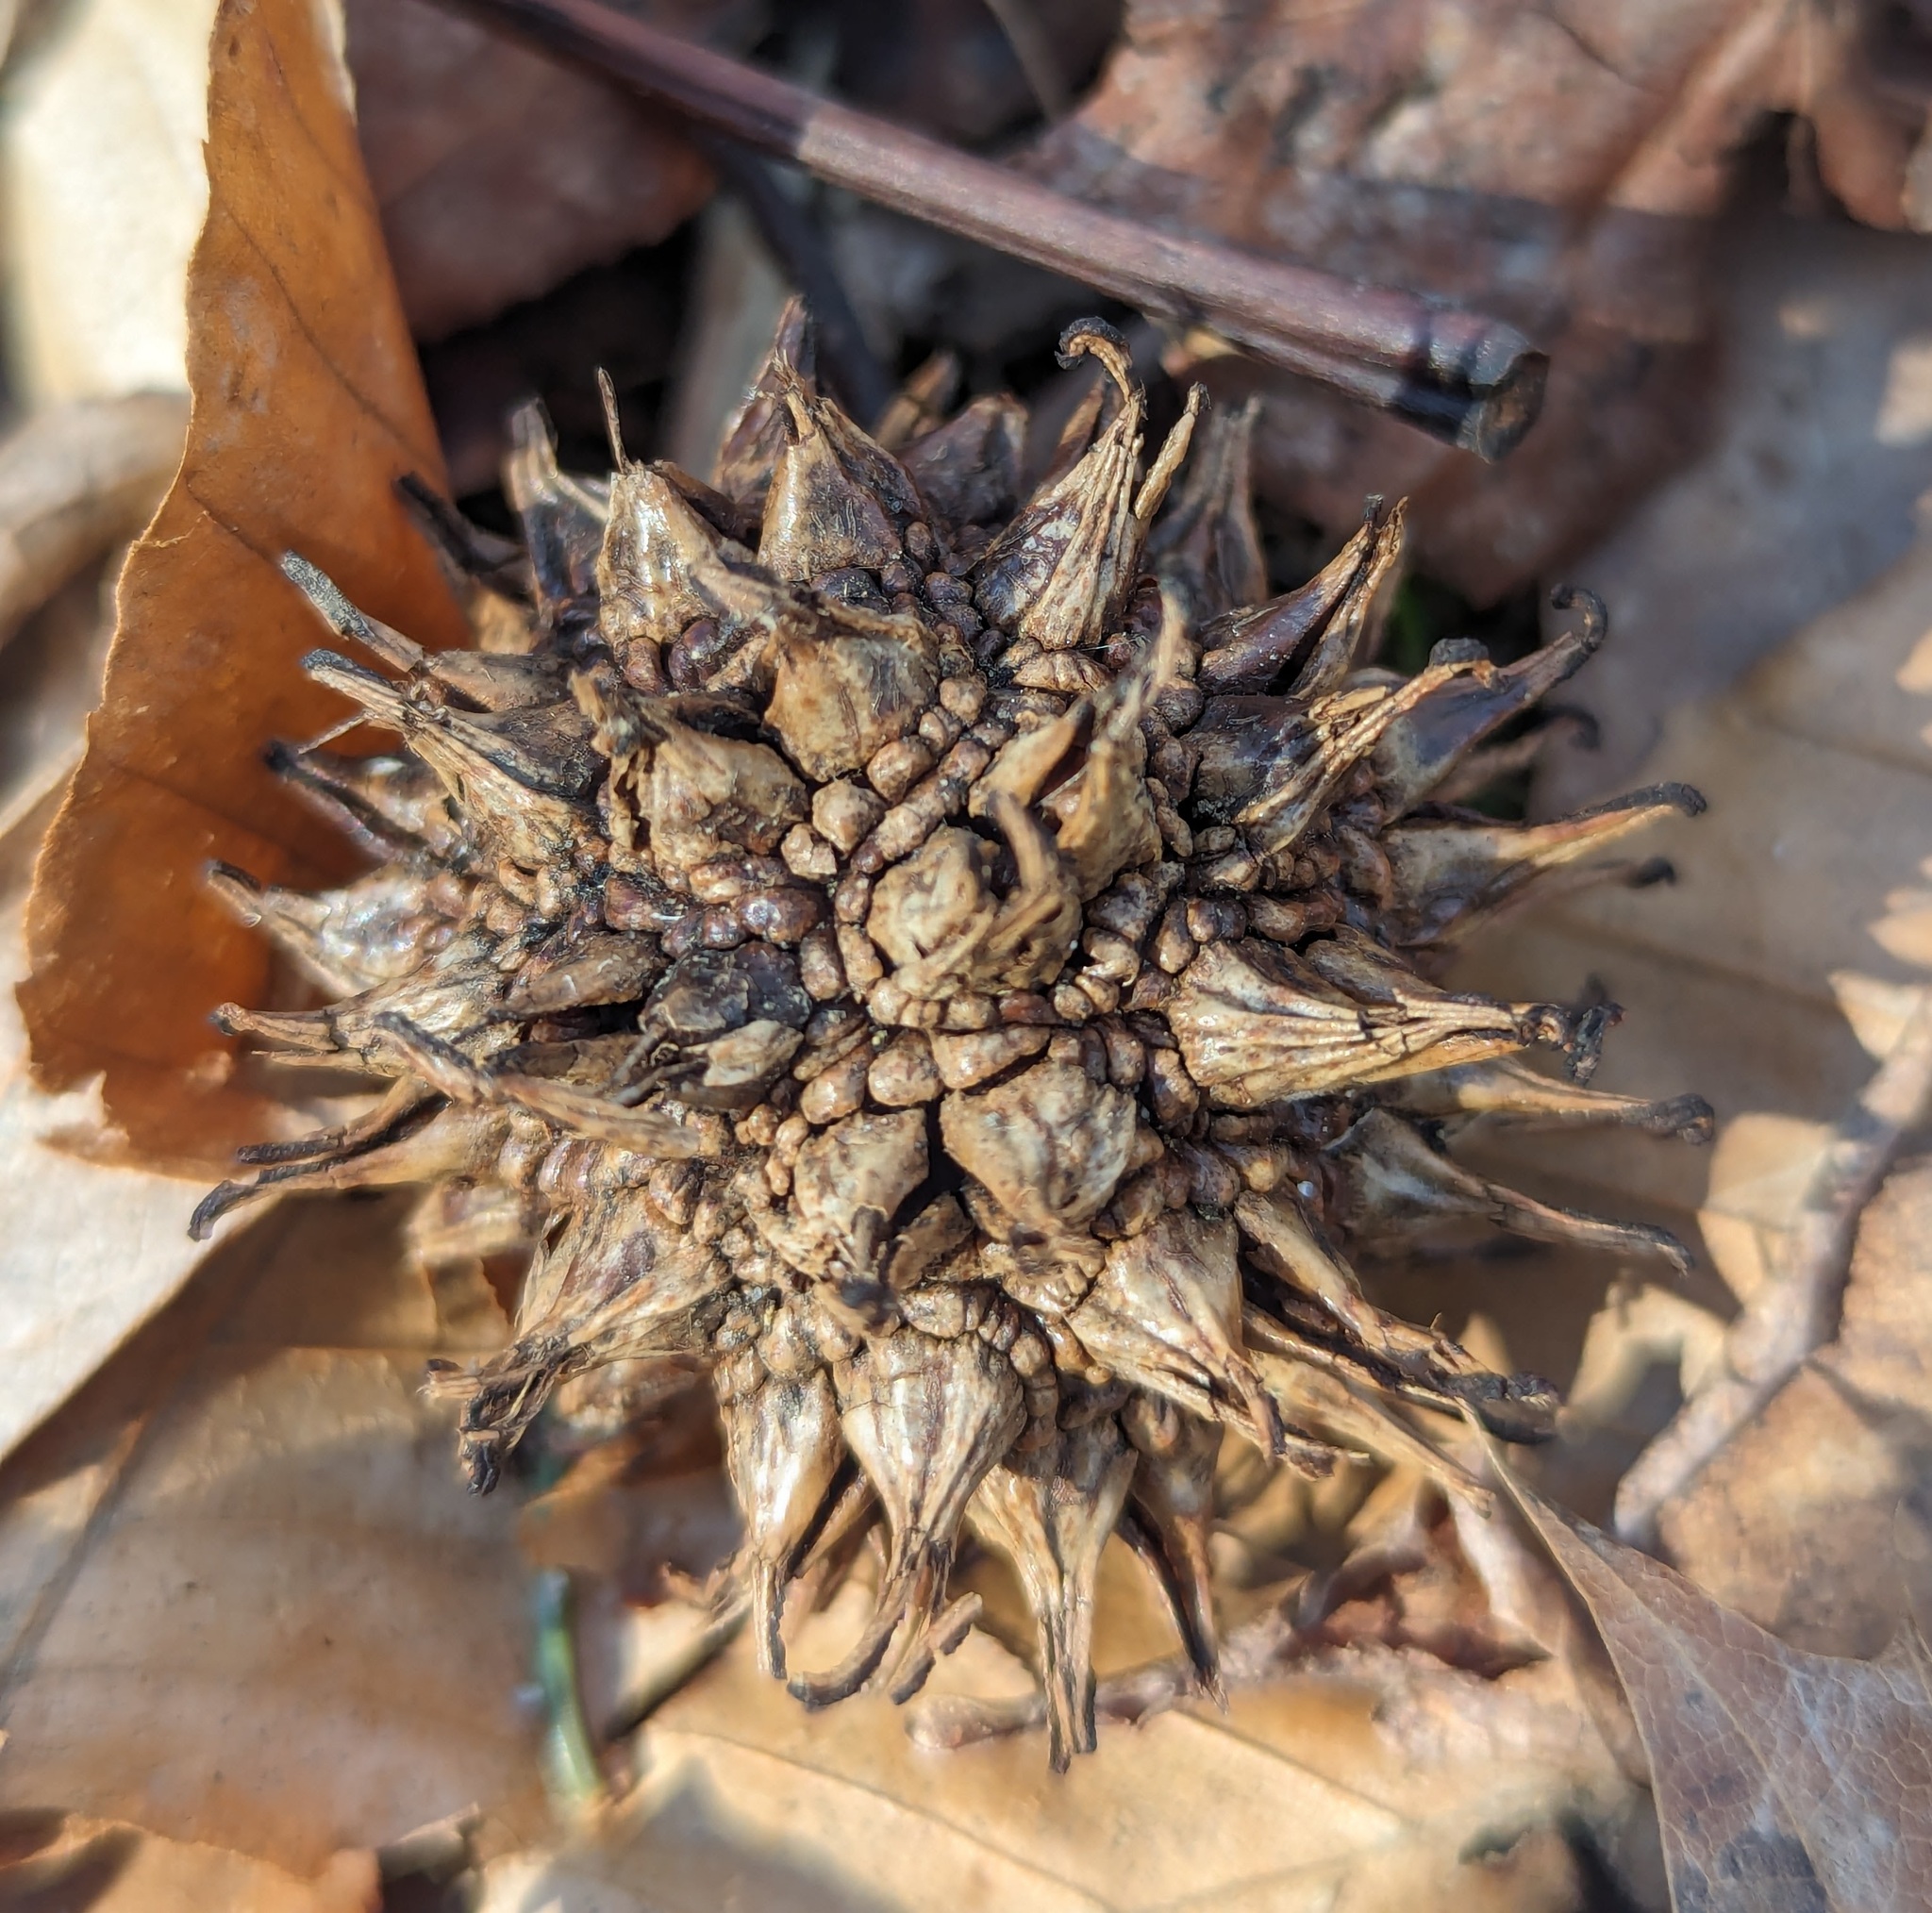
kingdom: Plantae
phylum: Tracheophyta
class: Magnoliopsida
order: Saxifragales
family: Altingiaceae
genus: Liquidambar
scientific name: Liquidambar styraciflua
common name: Sweet gum
